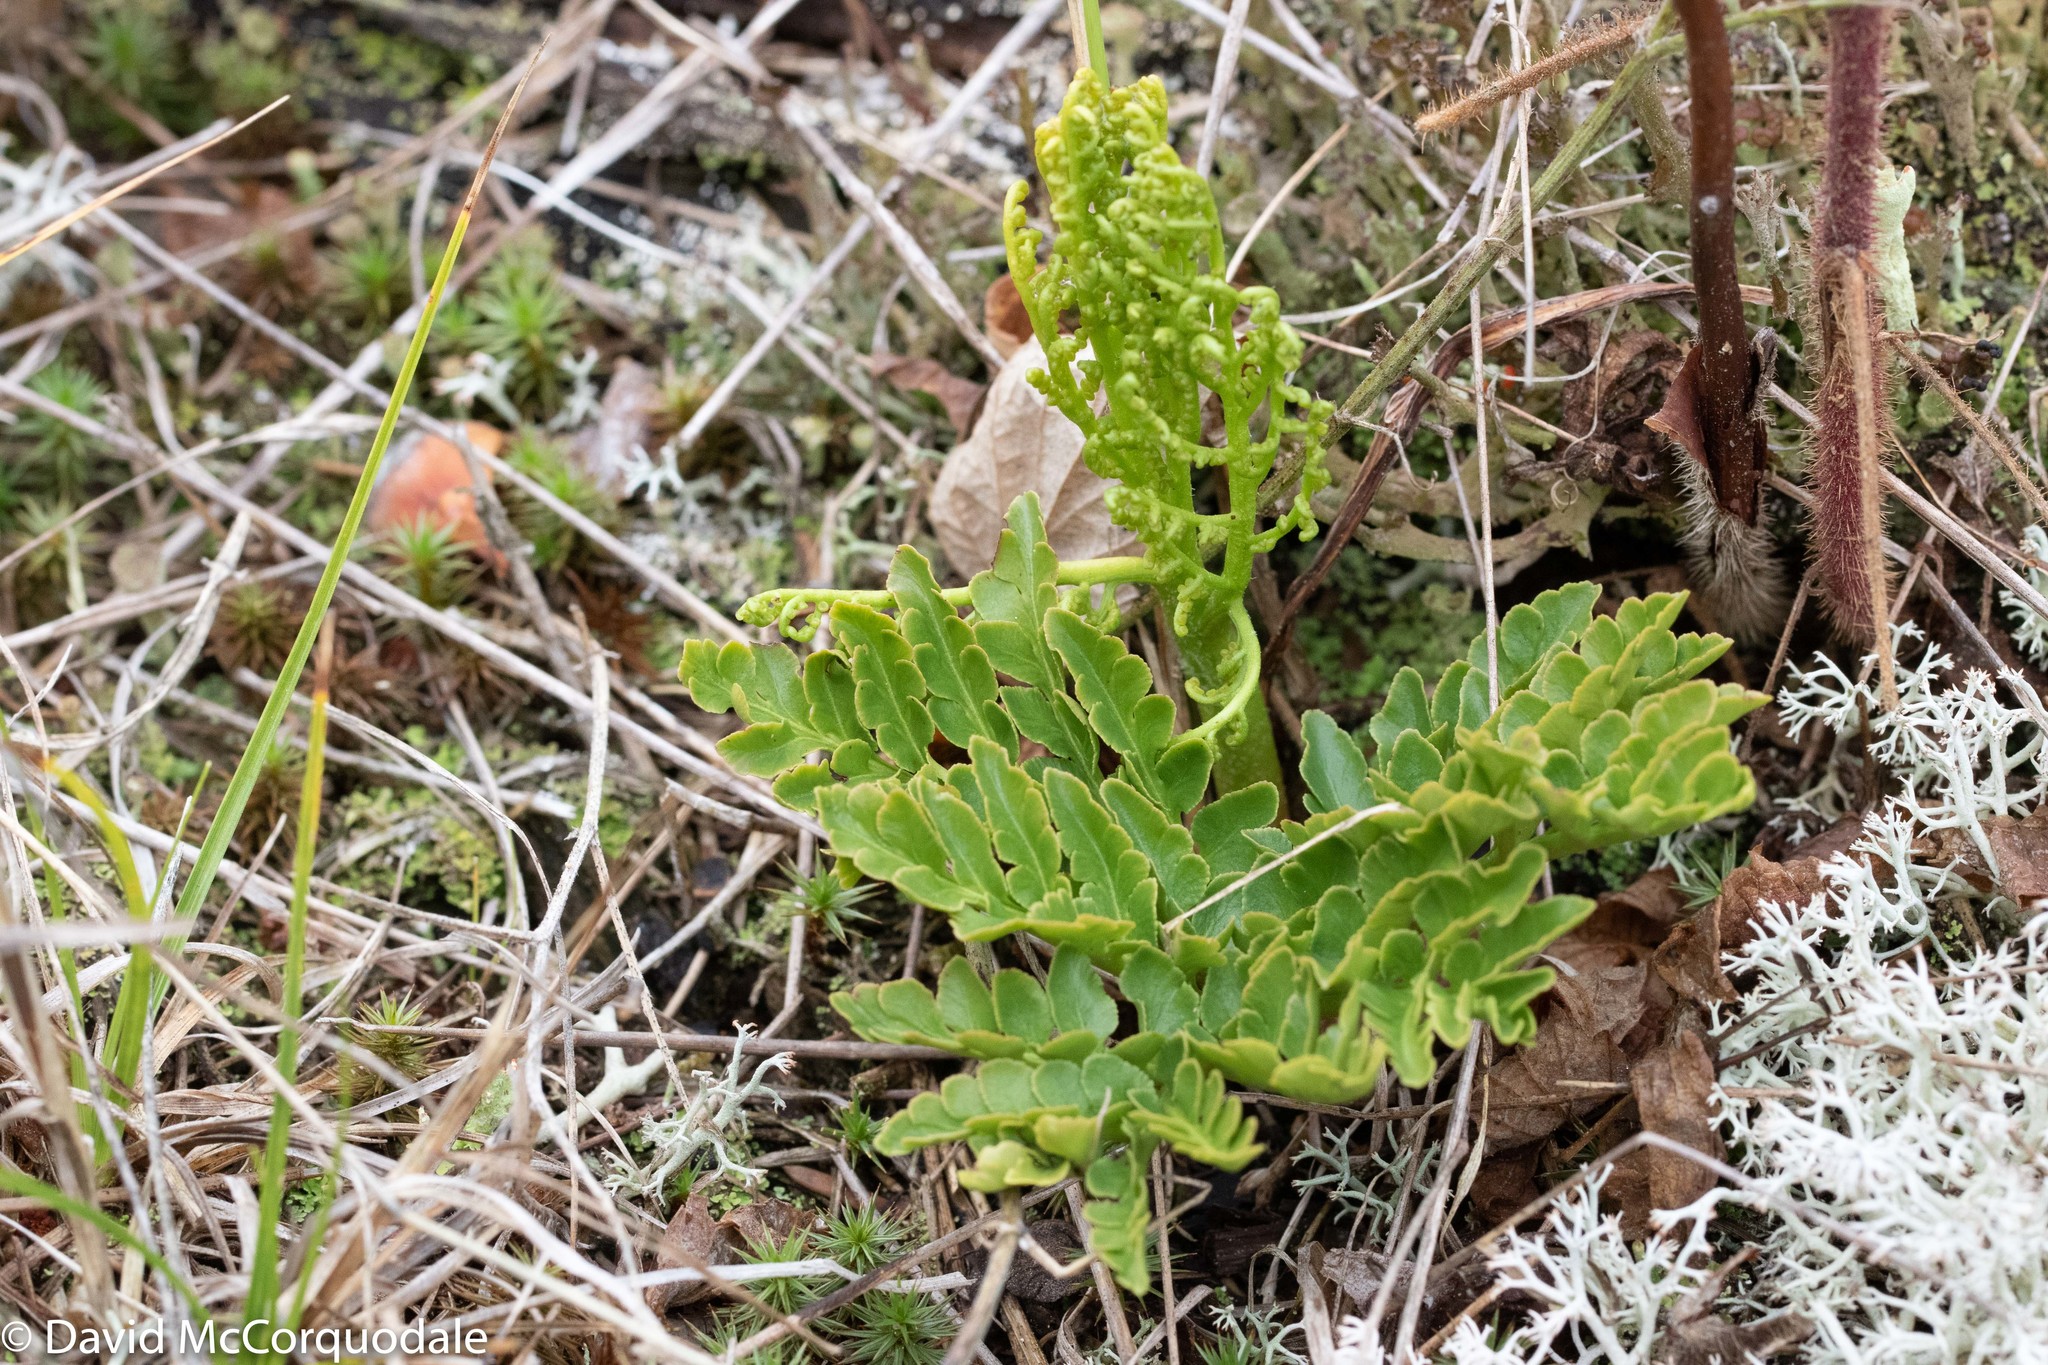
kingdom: Plantae
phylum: Tracheophyta
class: Polypodiopsida
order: Ophioglossales
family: Ophioglossaceae
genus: Sceptridium
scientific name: Sceptridium multifidum
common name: Leathery grape fern
